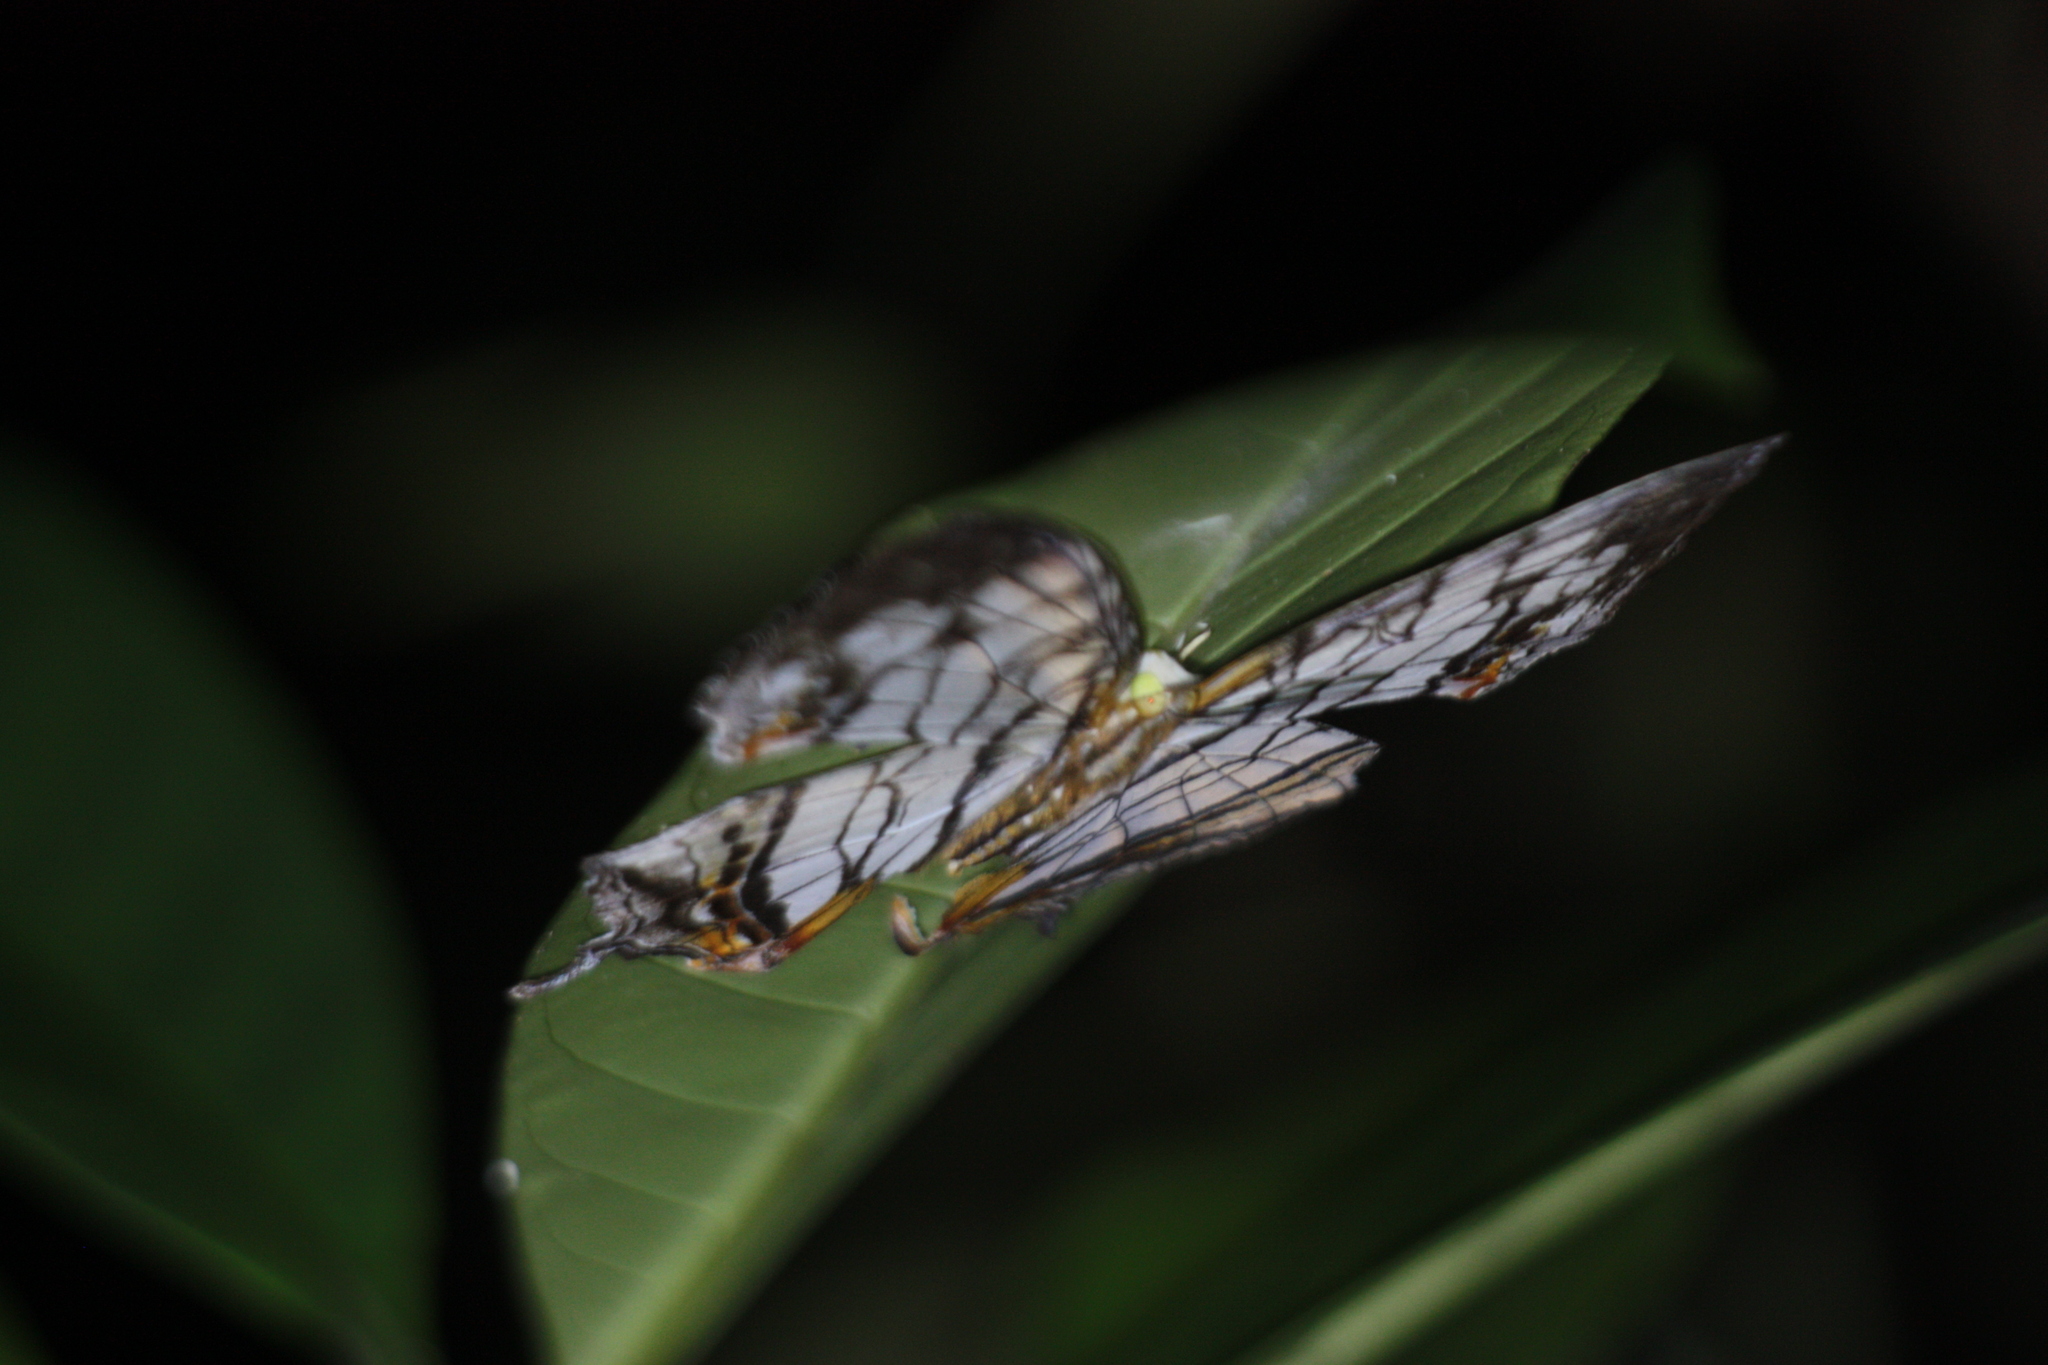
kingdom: Animalia
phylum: Arthropoda
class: Insecta
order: Lepidoptera
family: Nymphalidae
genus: Cyrestis
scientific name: Cyrestis thyodamas
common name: Common mapwing
